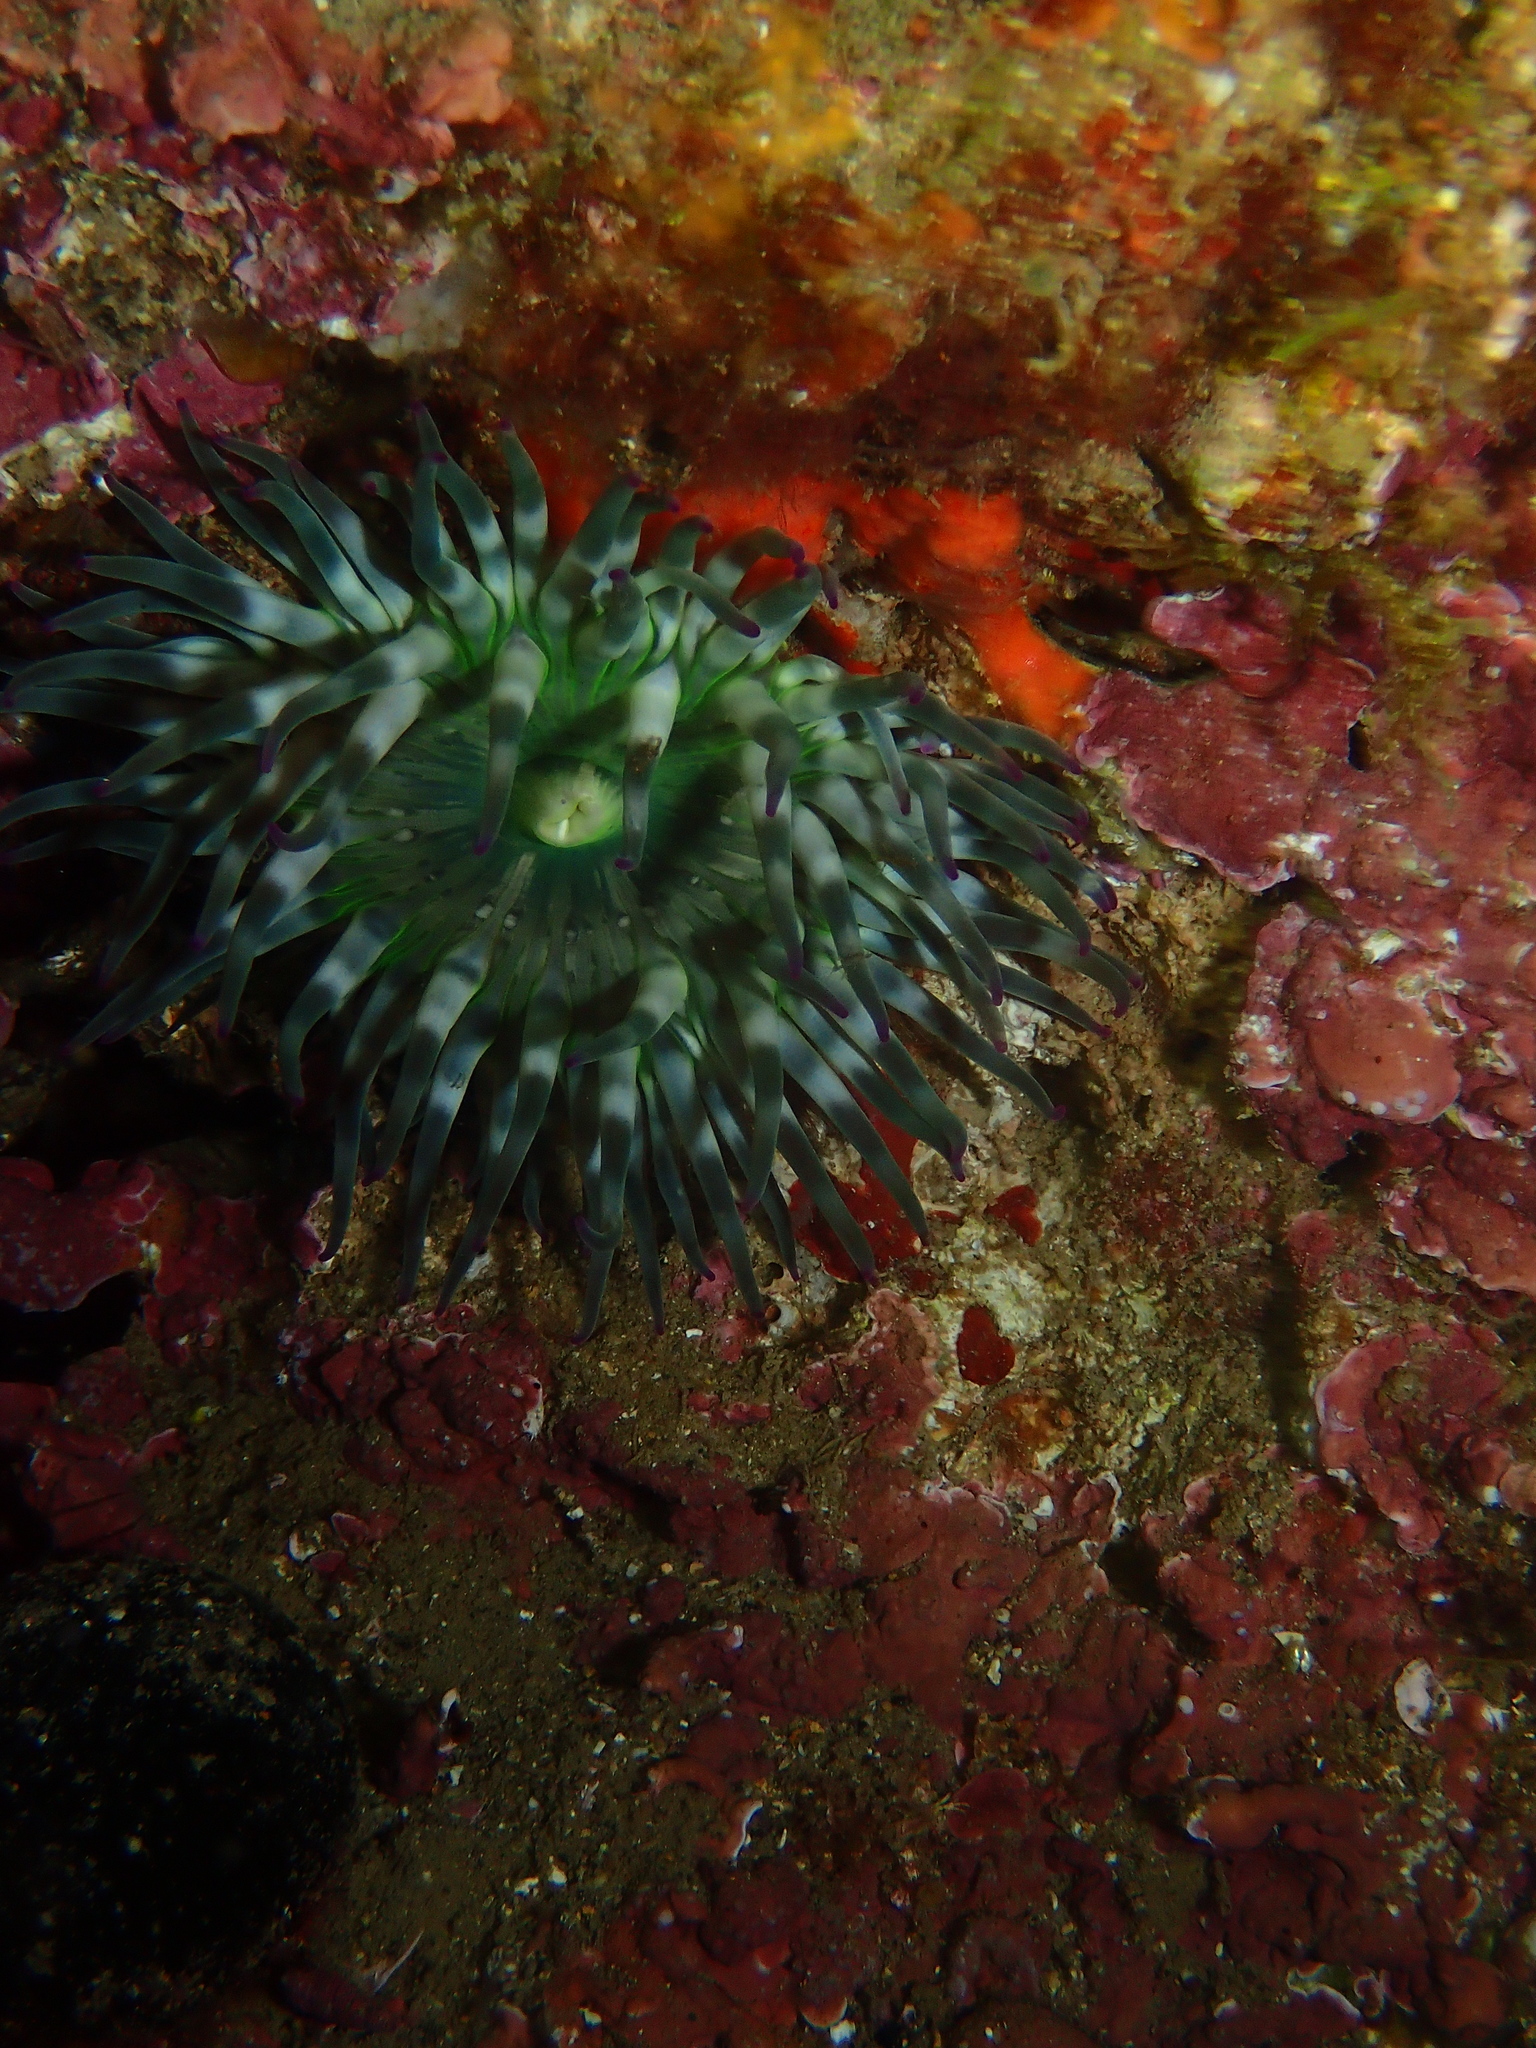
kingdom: Animalia
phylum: Cnidaria
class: Anthozoa
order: Actiniaria
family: Actiniidae
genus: Cribrinopsis
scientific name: Cribrinopsis crassa
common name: Fat anemone
